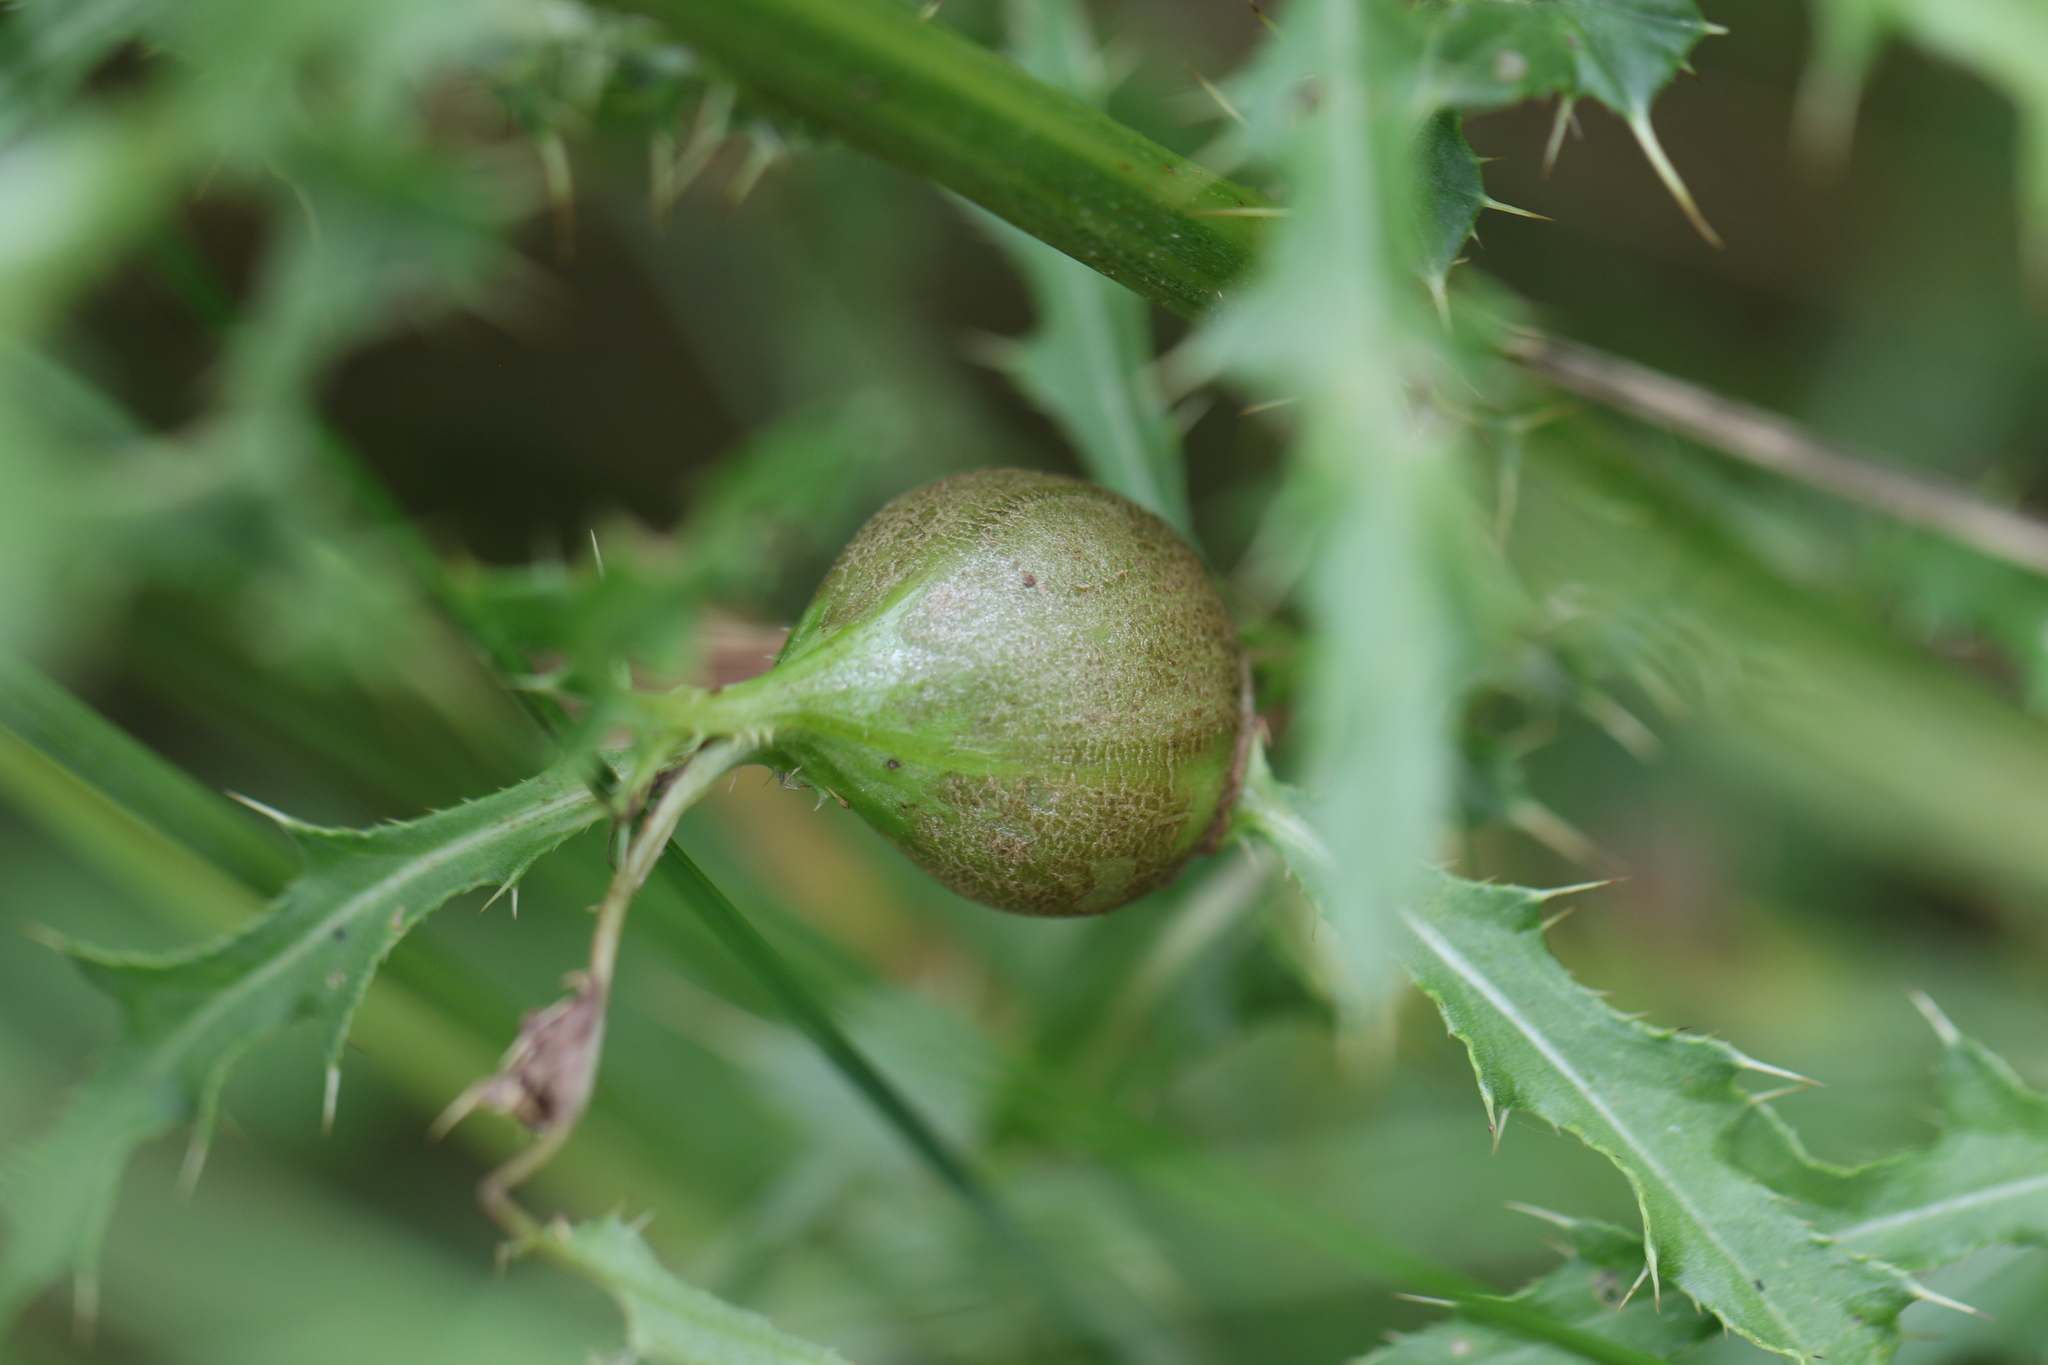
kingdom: Animalia
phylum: Arthropoda
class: Insecta
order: Diptera
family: Tephritidae
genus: Urophora
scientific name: Urophora cardui
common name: Fruit fly
